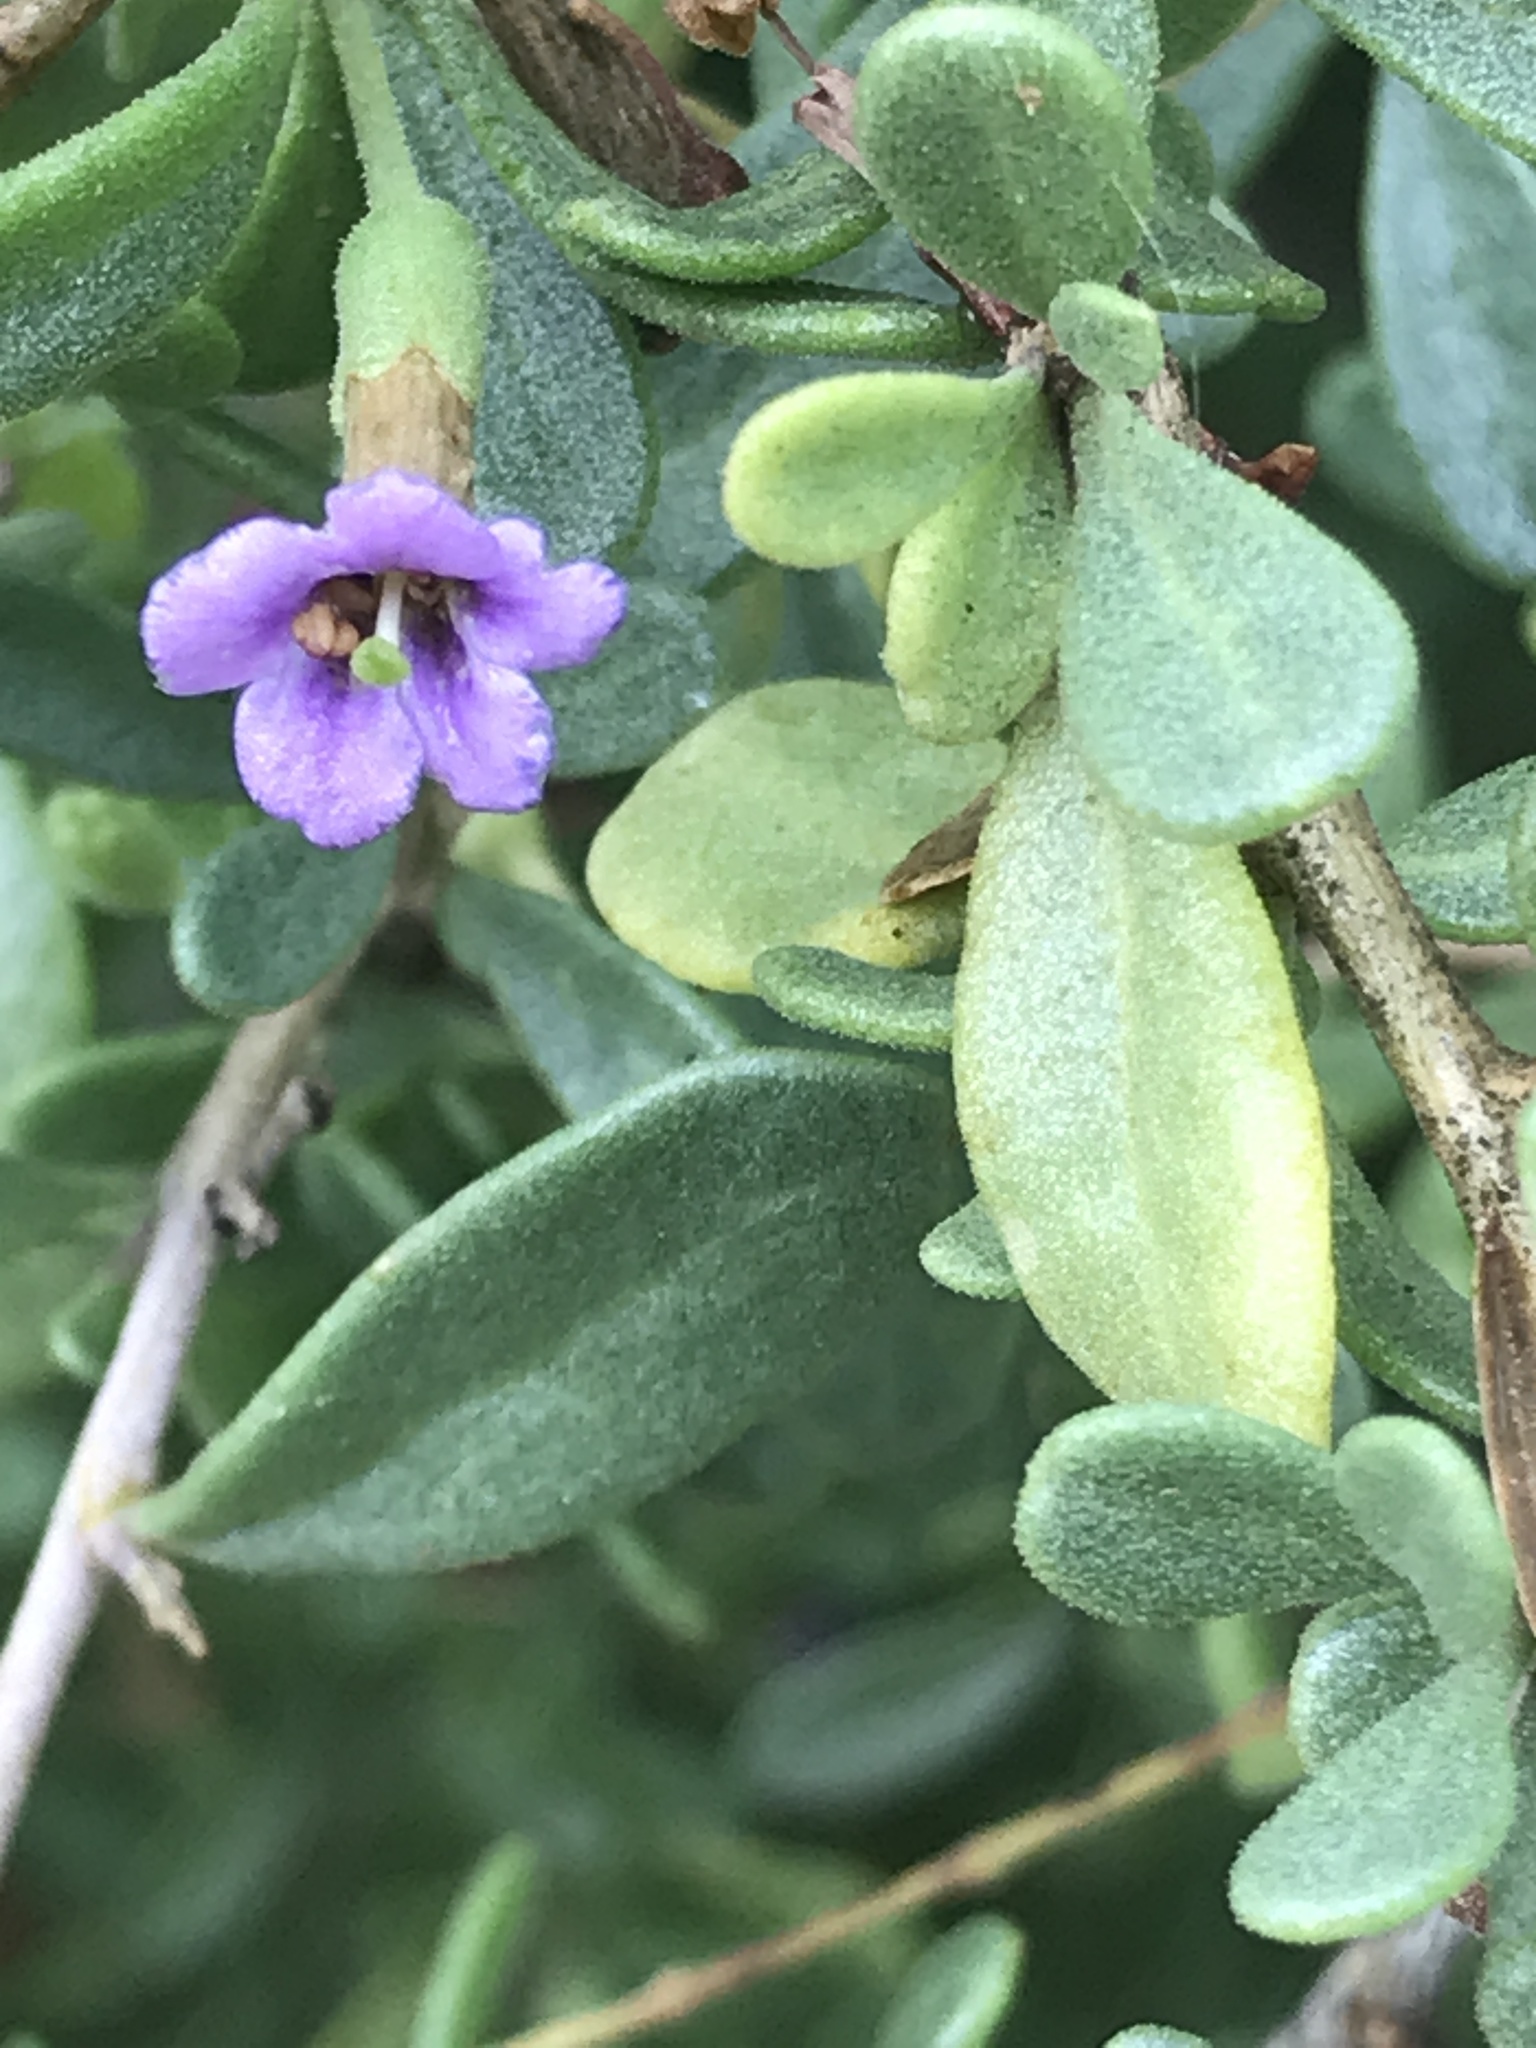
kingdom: Plantae
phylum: Tracheophyta
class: Magnoliopsida
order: Solanales
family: Solanaceae
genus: Lycium
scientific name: Lycium fremontii
